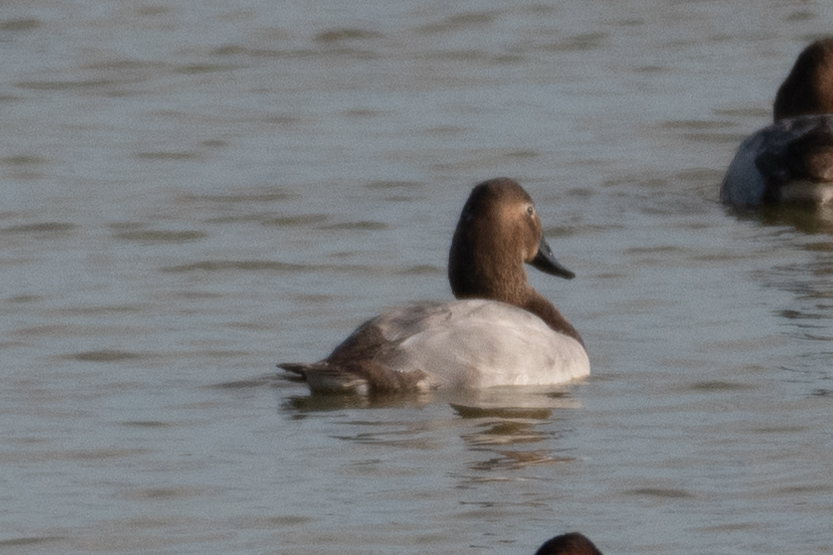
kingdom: Animalia
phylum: Chordata
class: Aves
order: Anseriformes
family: Anatidae
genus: Aythya
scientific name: Aythya valisineria
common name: Canvasback
